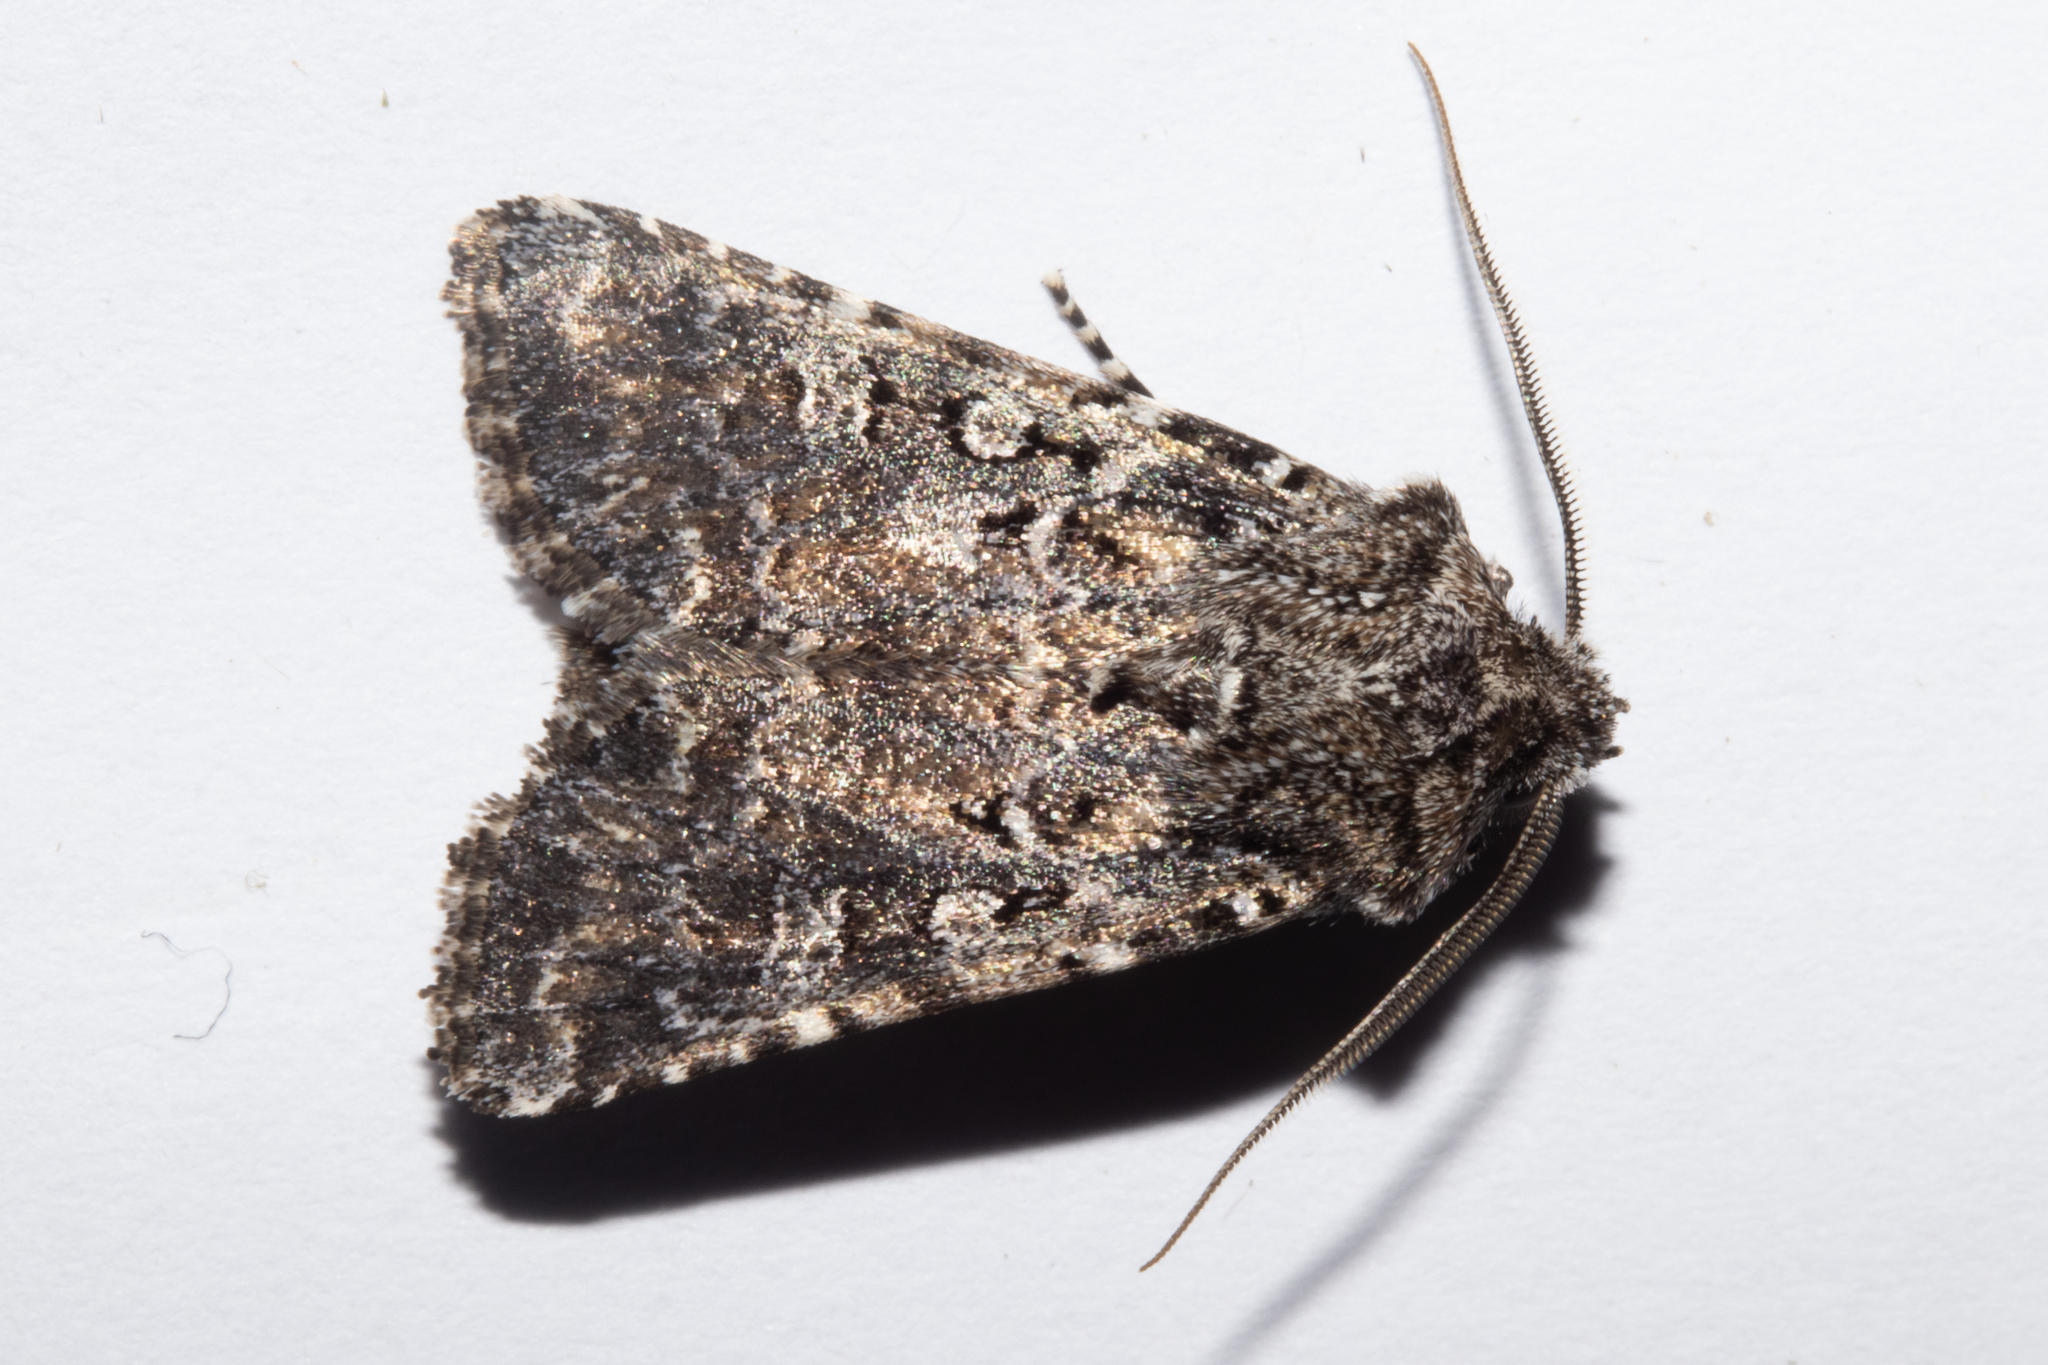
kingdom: Animalia
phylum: Arthropoda
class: Insecta
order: Lepidoptera
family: Noctuidae
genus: Ichneutica
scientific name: Ichneutica lithias
